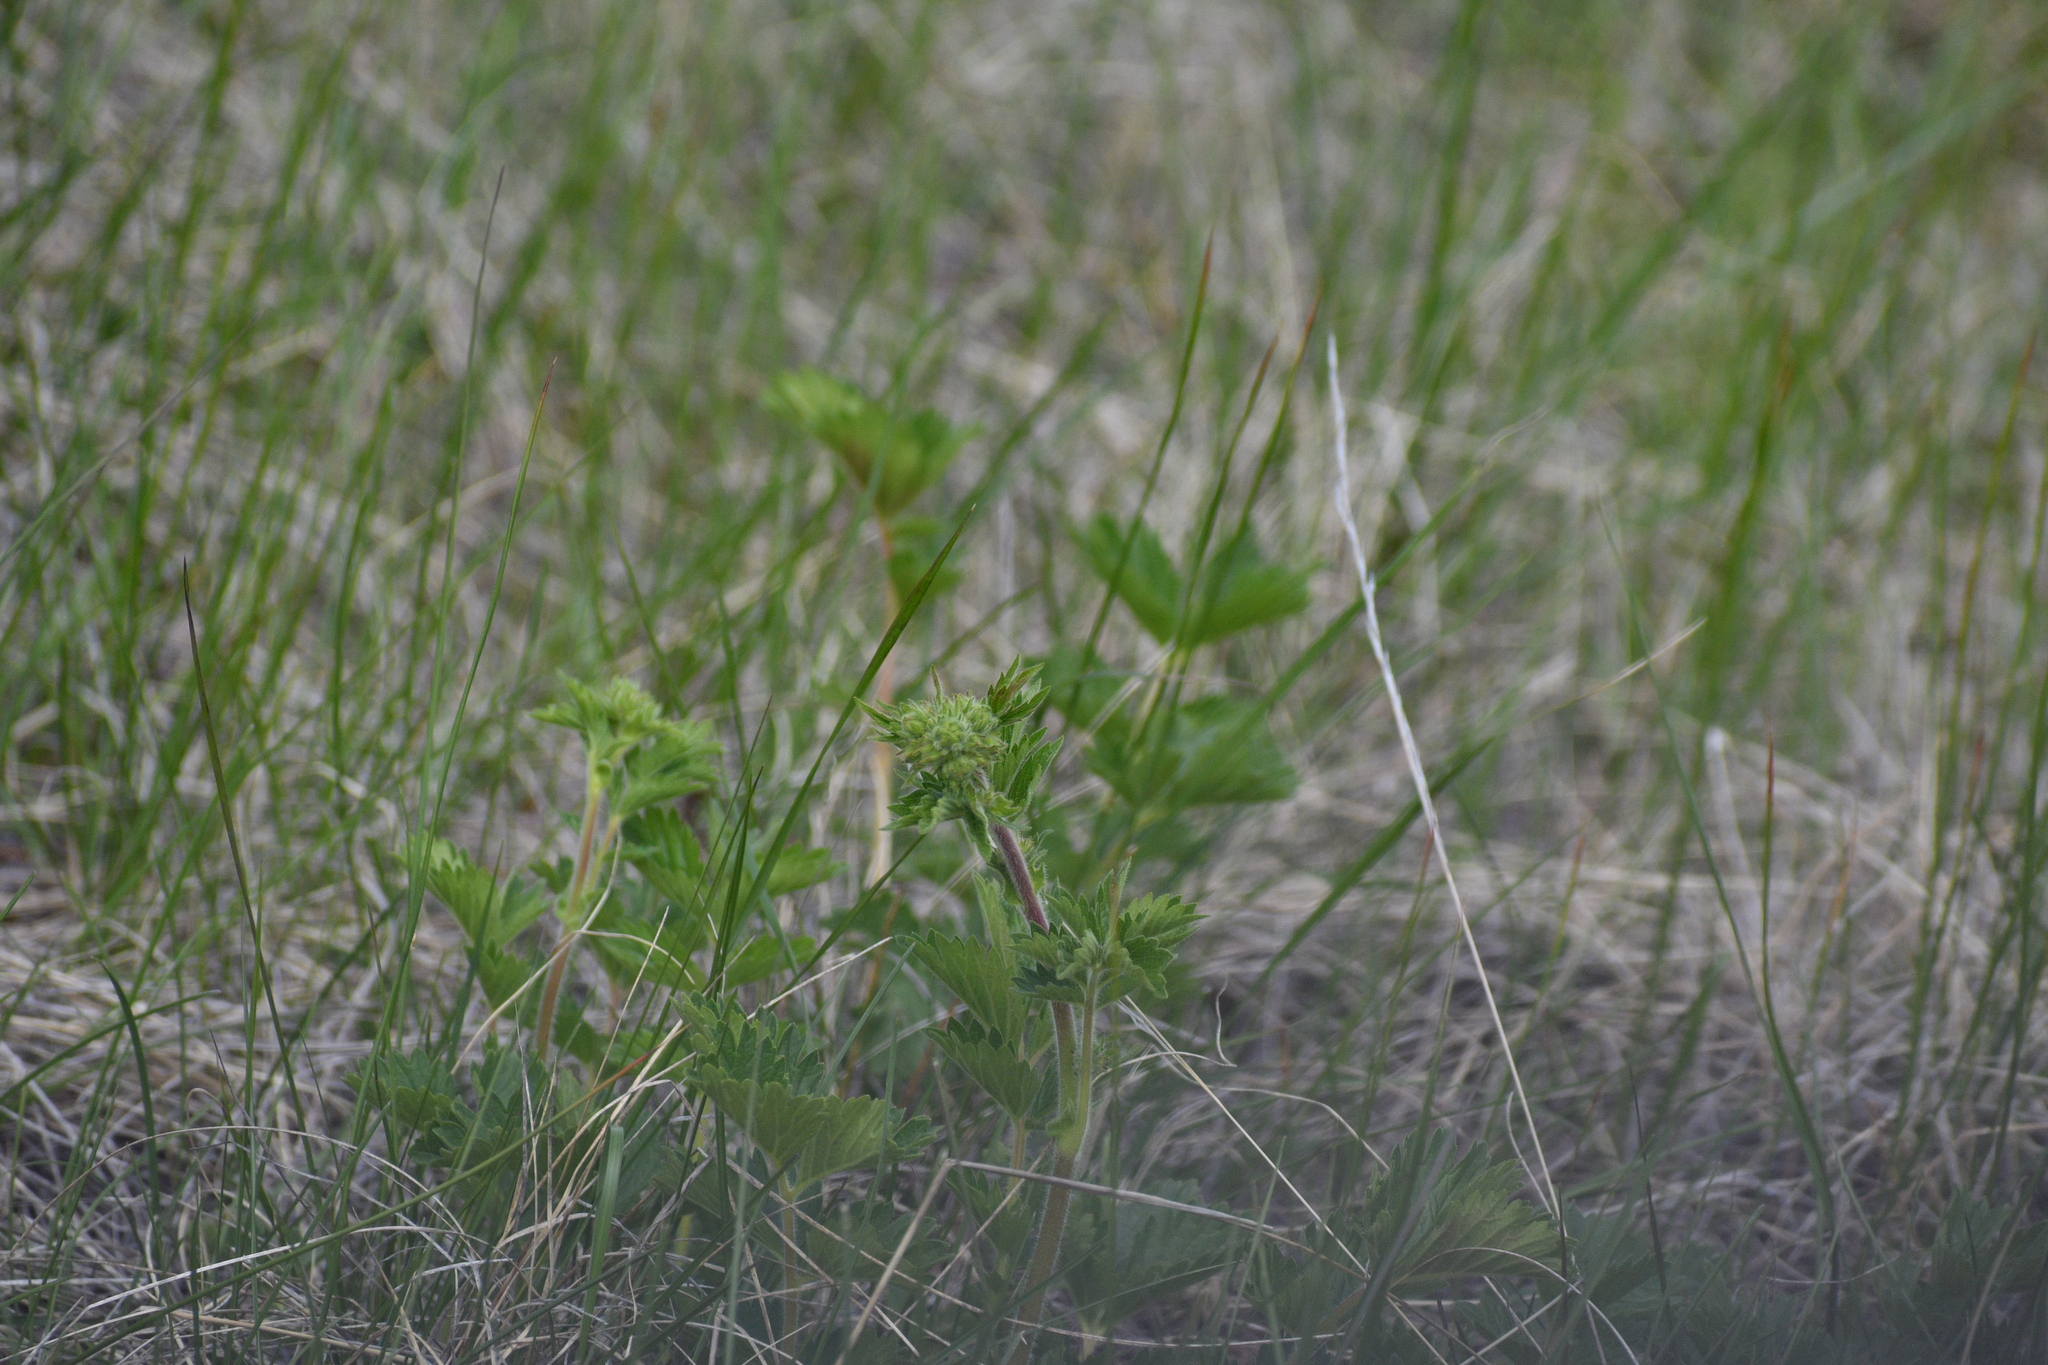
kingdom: Plantae
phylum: Tracheophyta
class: Magnoliopsida
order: Rosales
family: Rosaceae
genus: Drymocallis
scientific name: Drymocallis convallaria
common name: Cream cinquefoil
